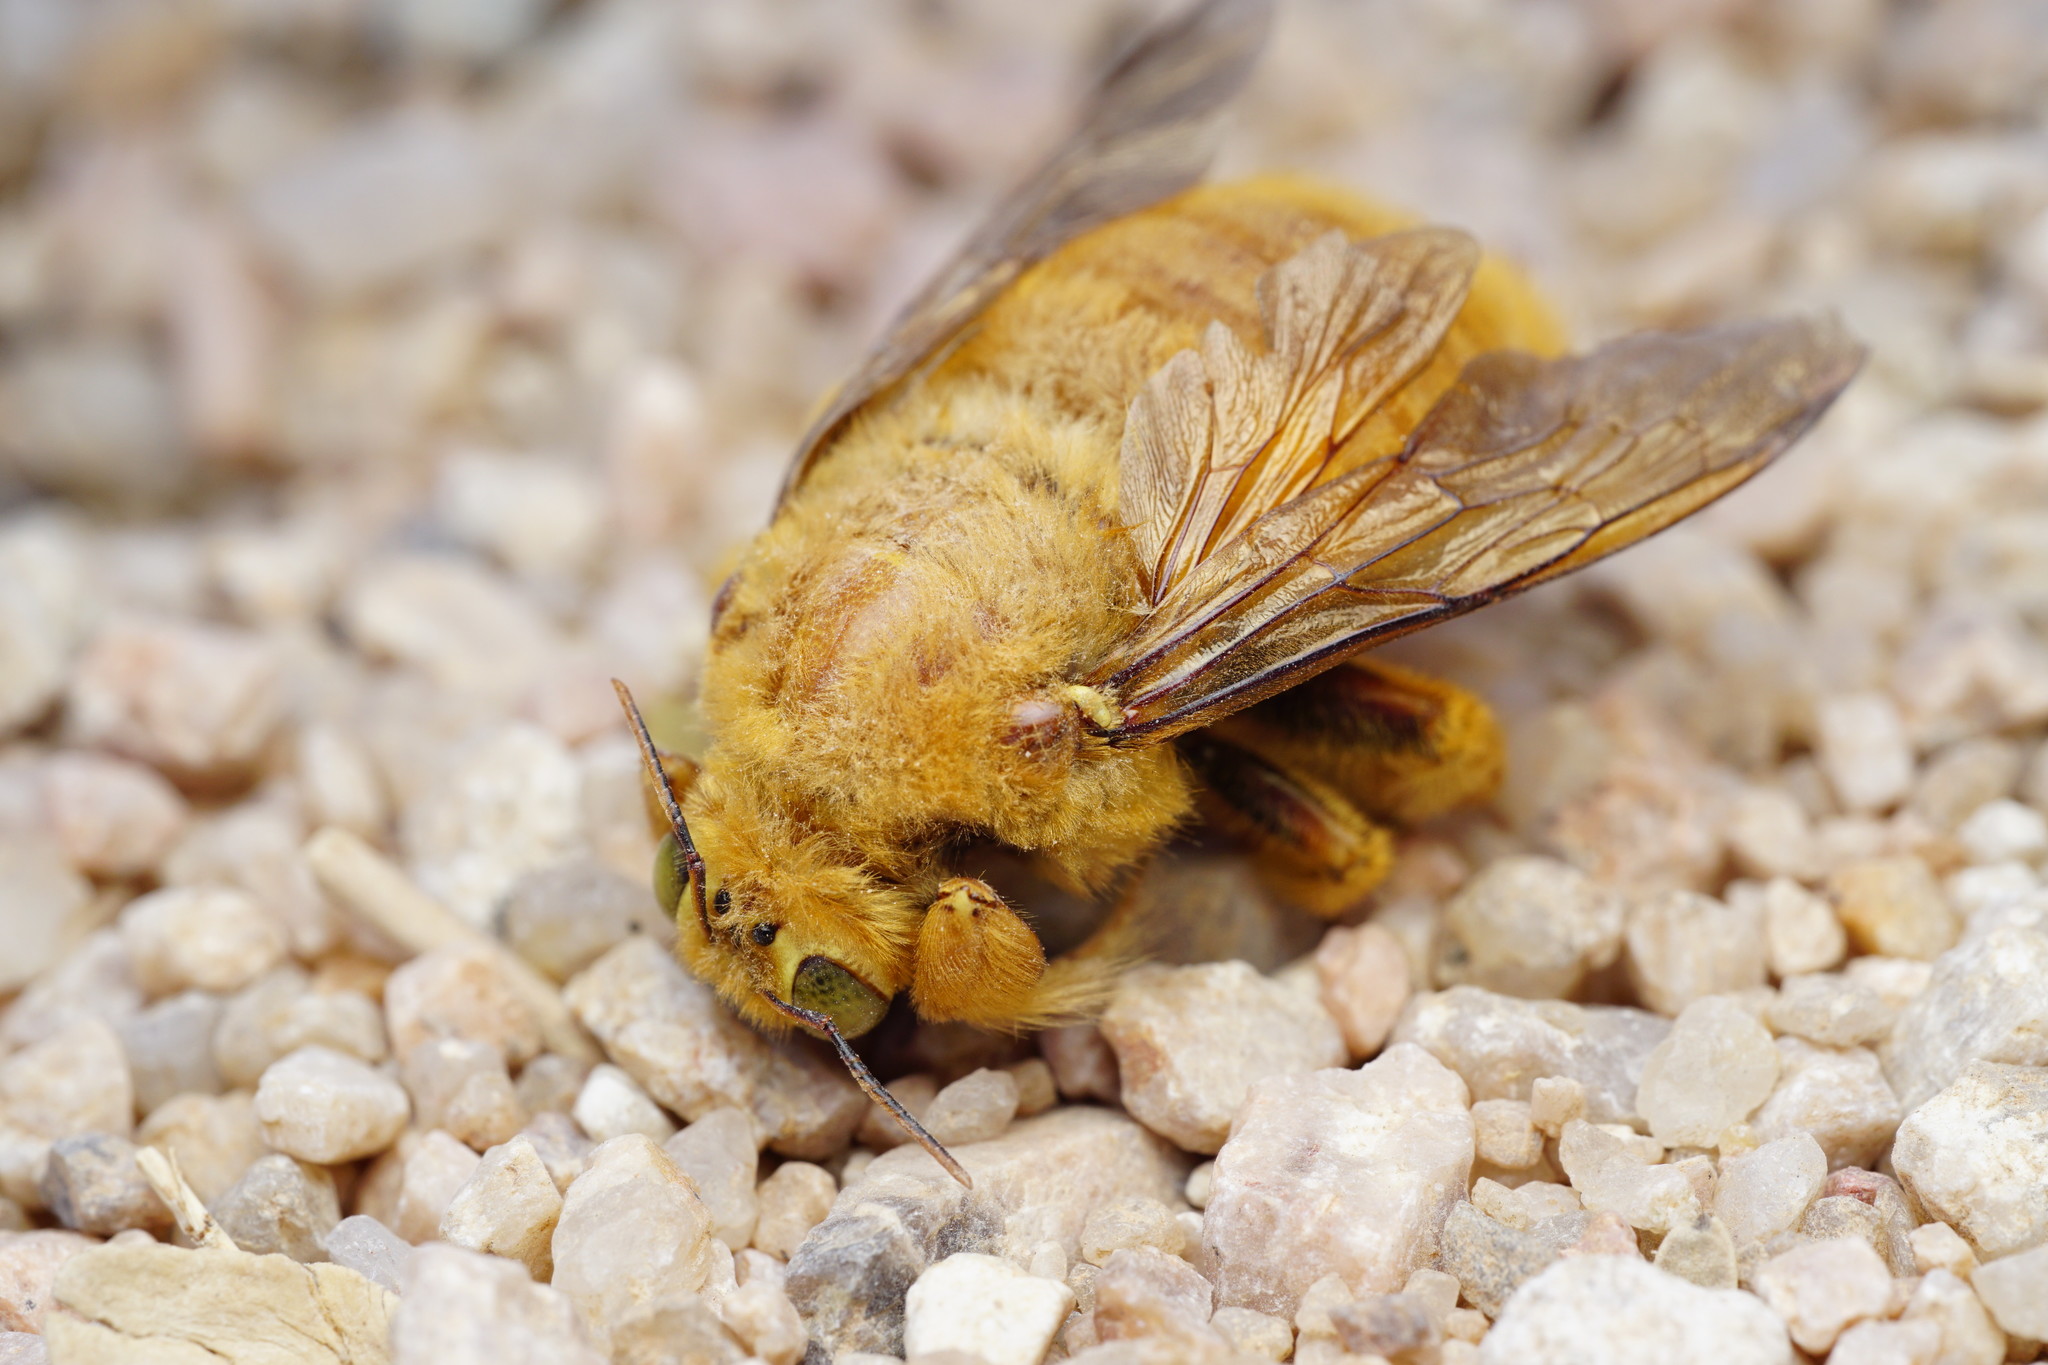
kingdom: Animalia
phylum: Arthropoda
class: Insecta
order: Hymenoptera
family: Apidae
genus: Xylocopa
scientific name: Xylocopa sonorina
